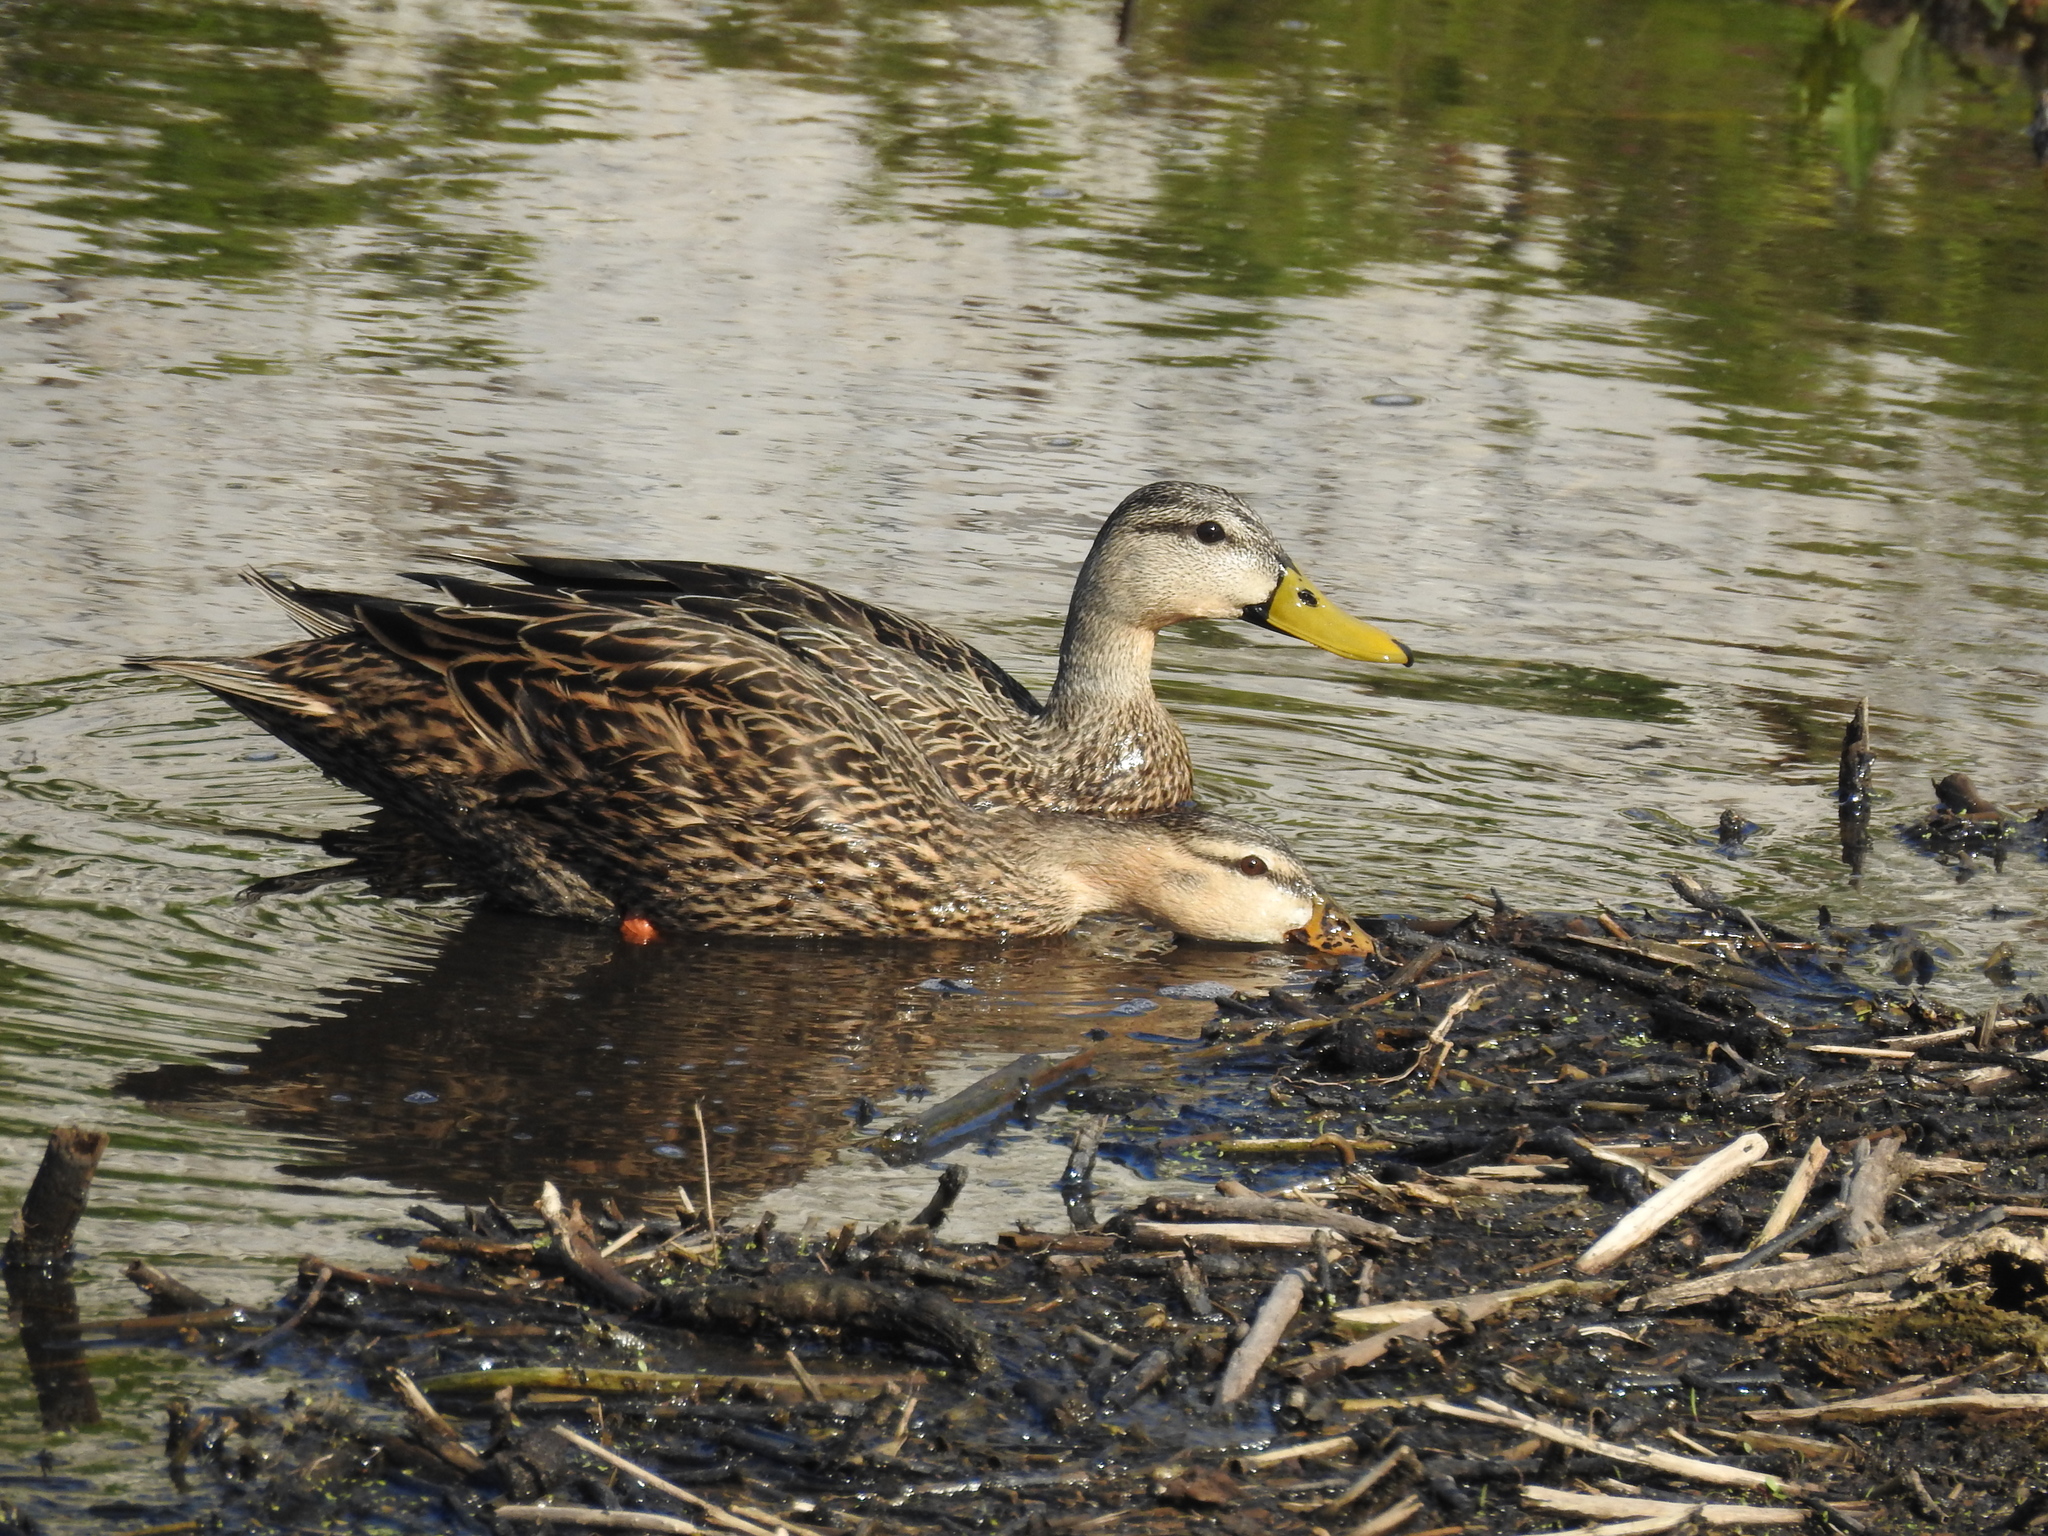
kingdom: Animalia
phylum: Chordata
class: Aves
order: Anseriformes
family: Anatidae
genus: Anas
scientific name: Anas fulvigula
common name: Mottled duck
